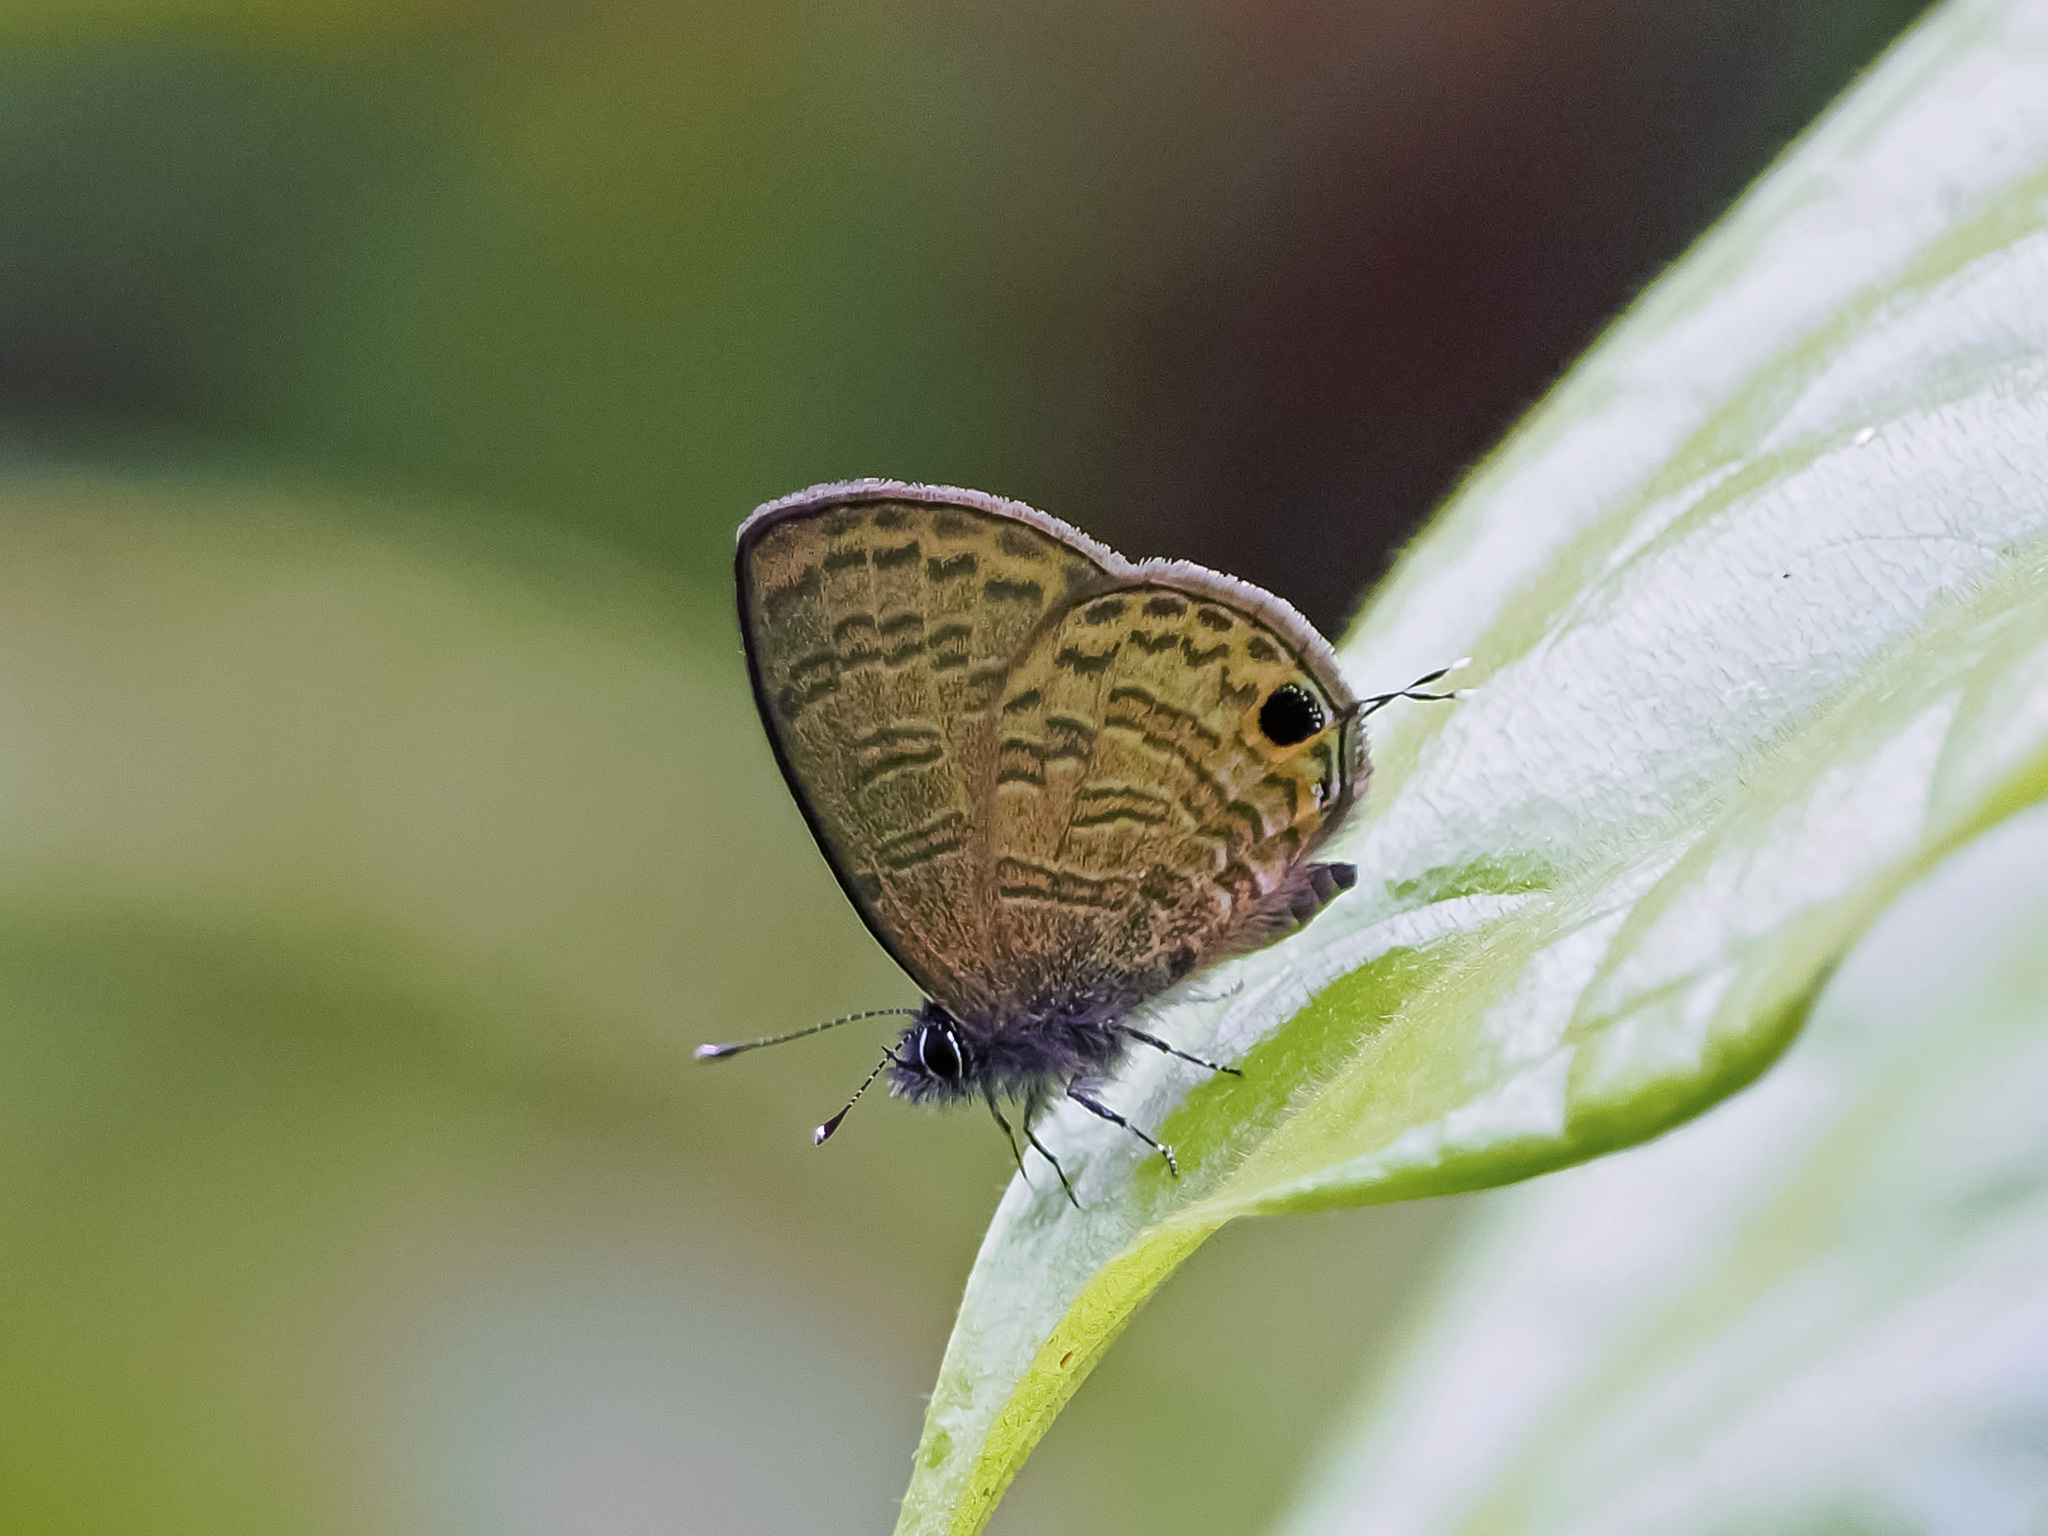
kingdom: Animalia
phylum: Arthropoda
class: Insecta
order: Lepidoptera
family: Lycaenidae
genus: Prosotas
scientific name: Prosotas nora
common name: Common line blue
